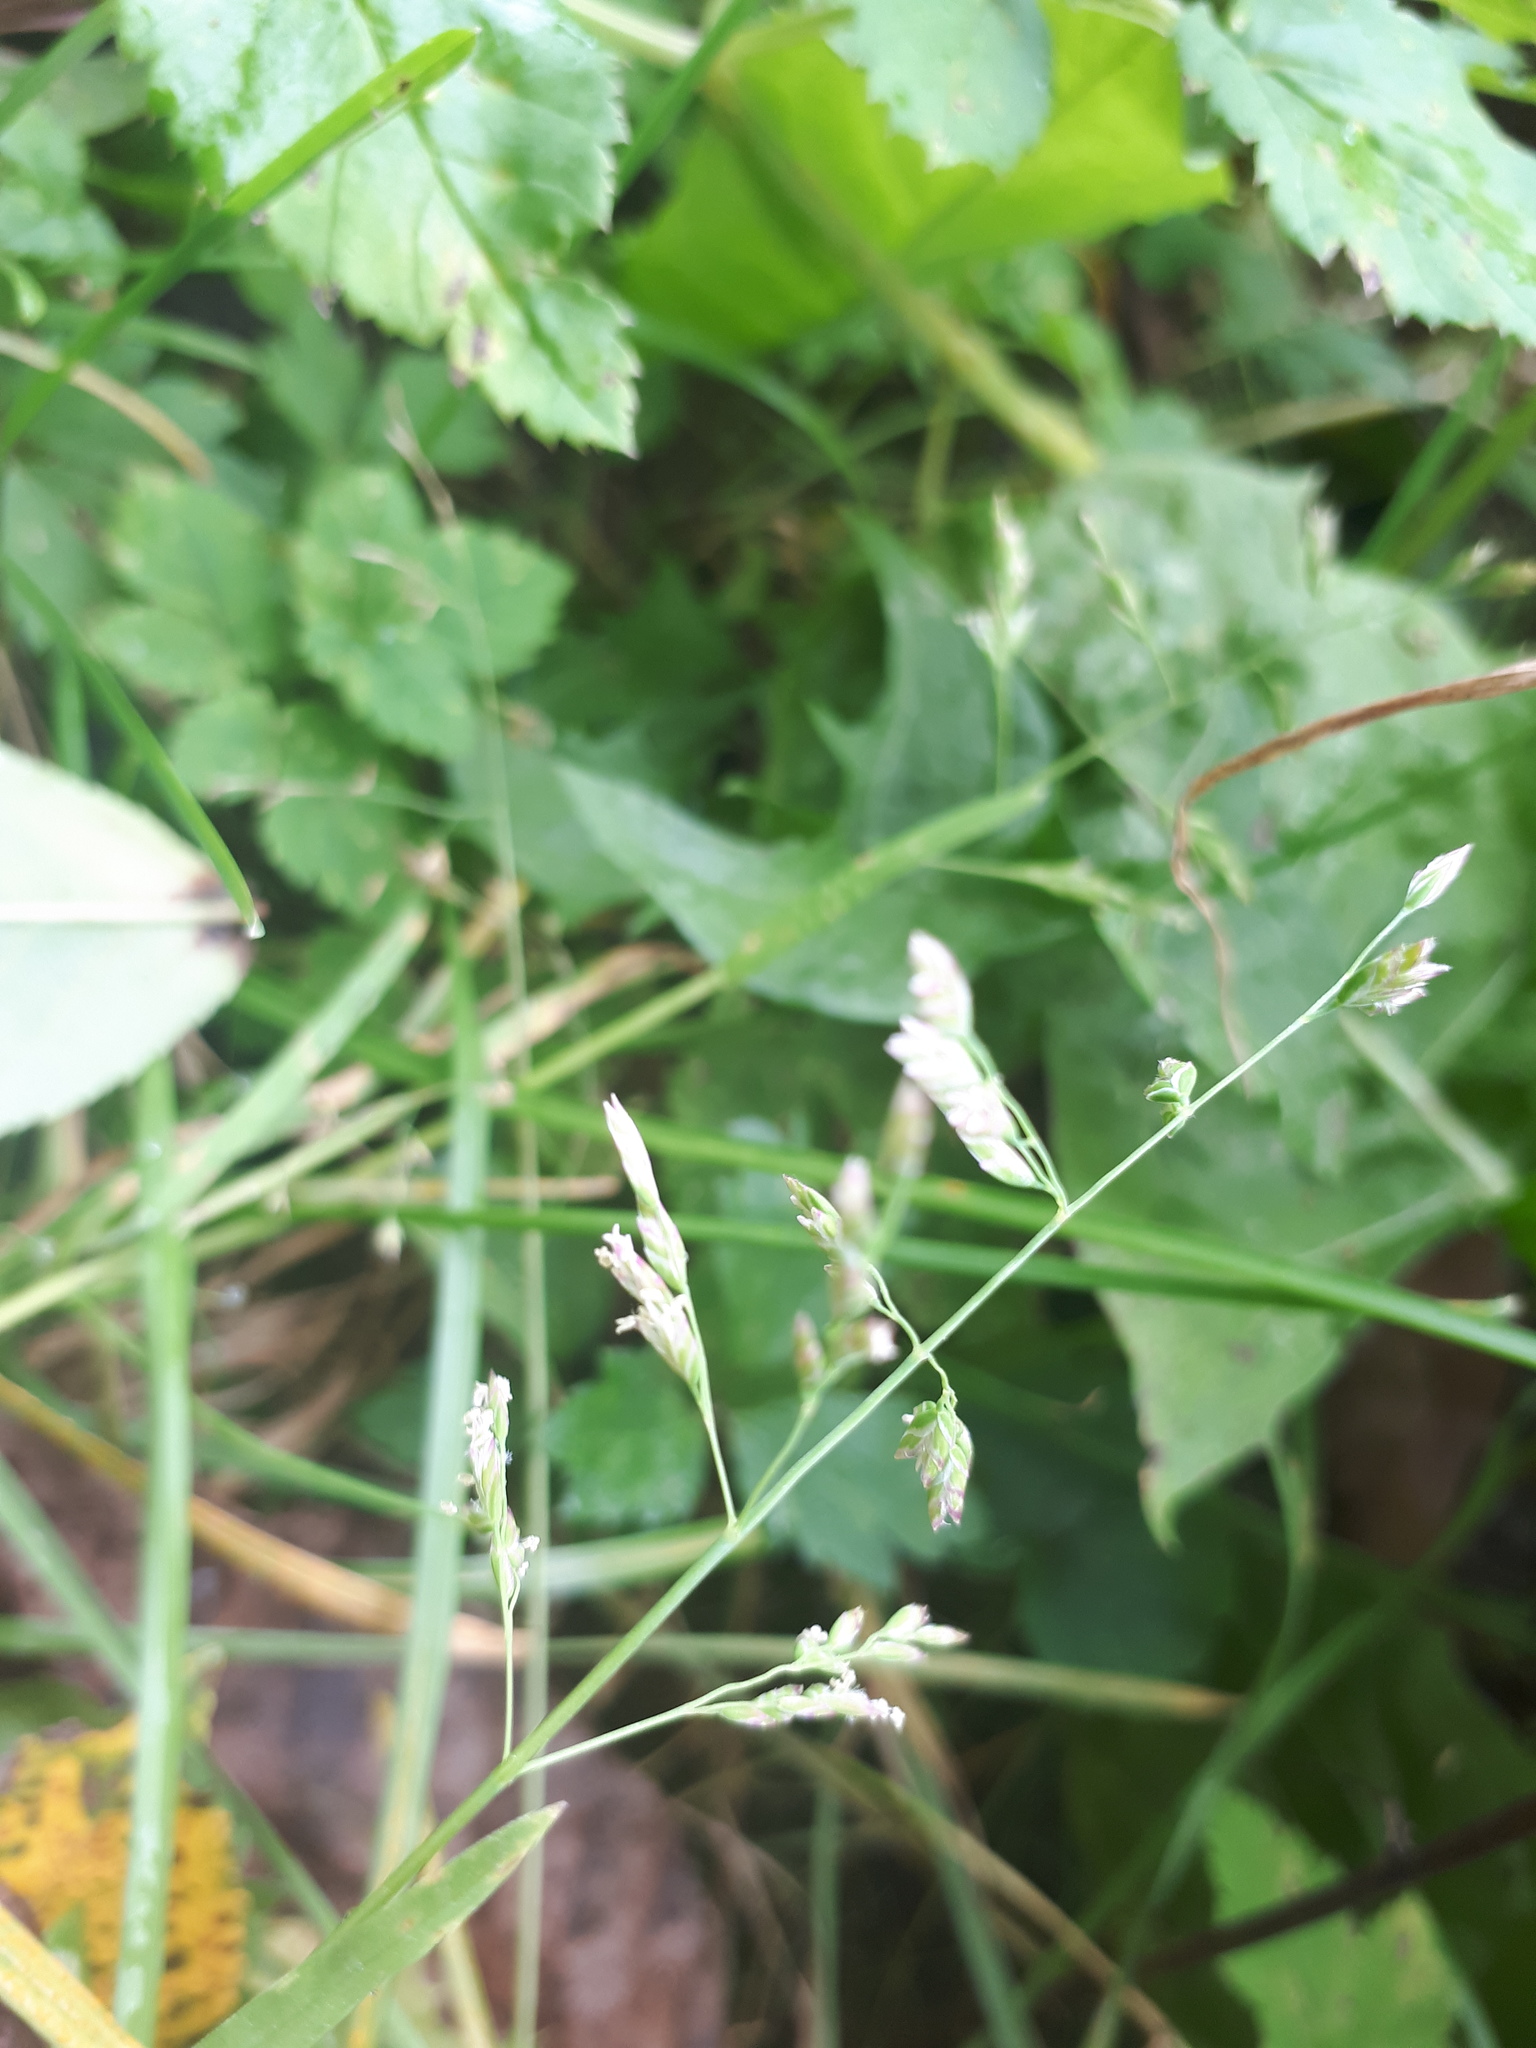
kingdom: Plantae
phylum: Tracheophyta
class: Liliopsida
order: Poales
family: Poaceae
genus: Poa
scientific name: Poa annua
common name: Annual bluegrass
